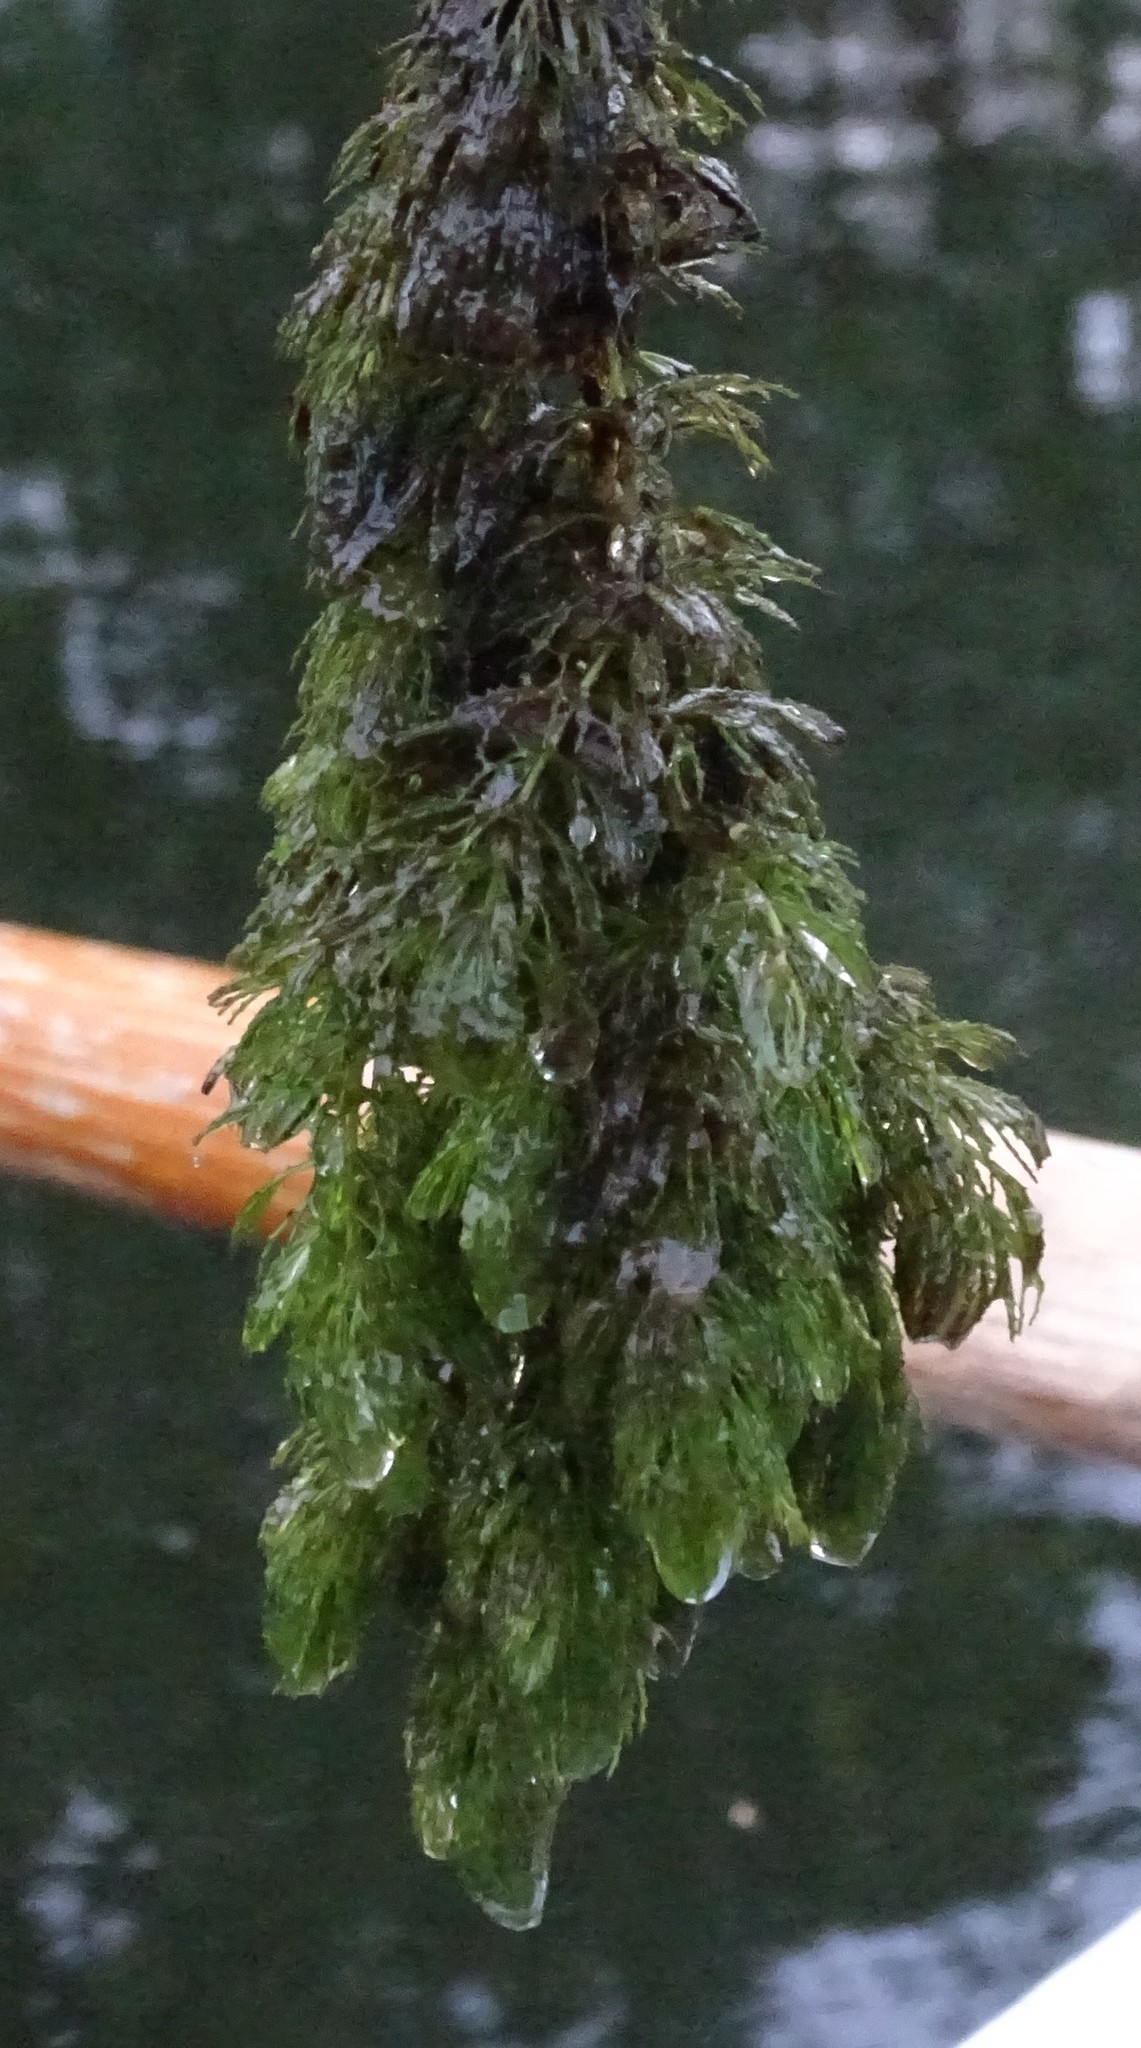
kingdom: Plantae
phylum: Tracheophyta
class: Magnoliopsida
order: Ceratophyllales
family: Ceratophyllaceae
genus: Ceratophyllum
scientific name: Ceratophyllum demersum
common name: Rigid hornwort
